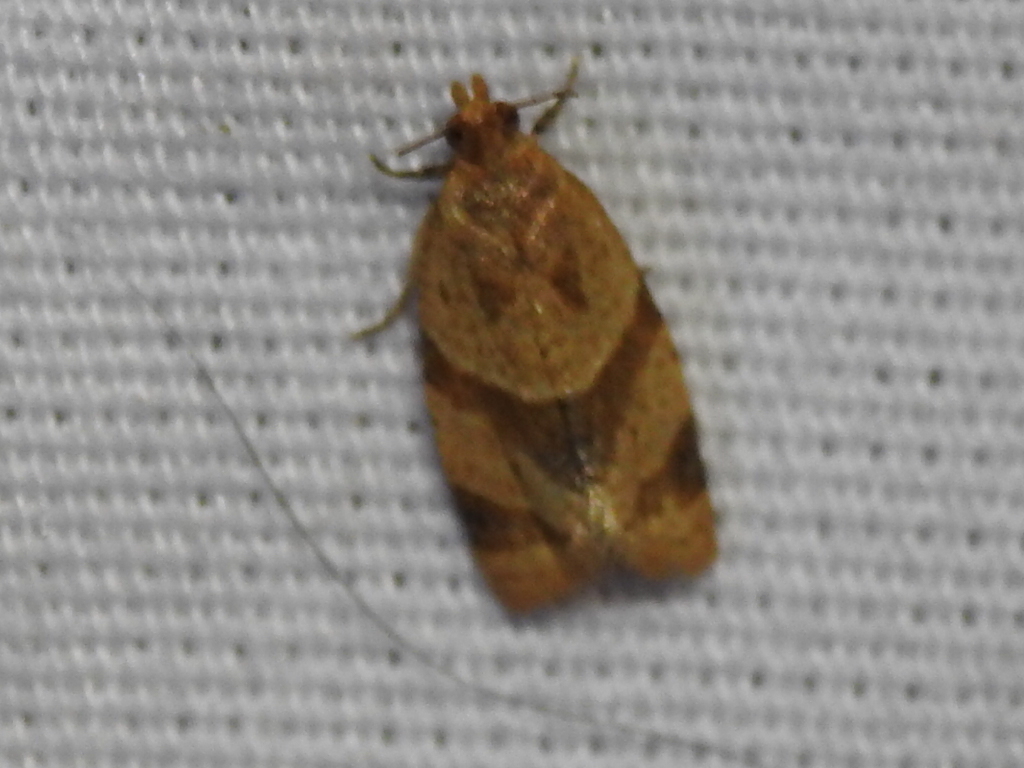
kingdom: Animalia
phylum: Arthropoda
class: Insecta
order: Lepidoptera
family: Tortricidae
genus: Clepsis
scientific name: Clepsis peritana
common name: Garden tortrix
